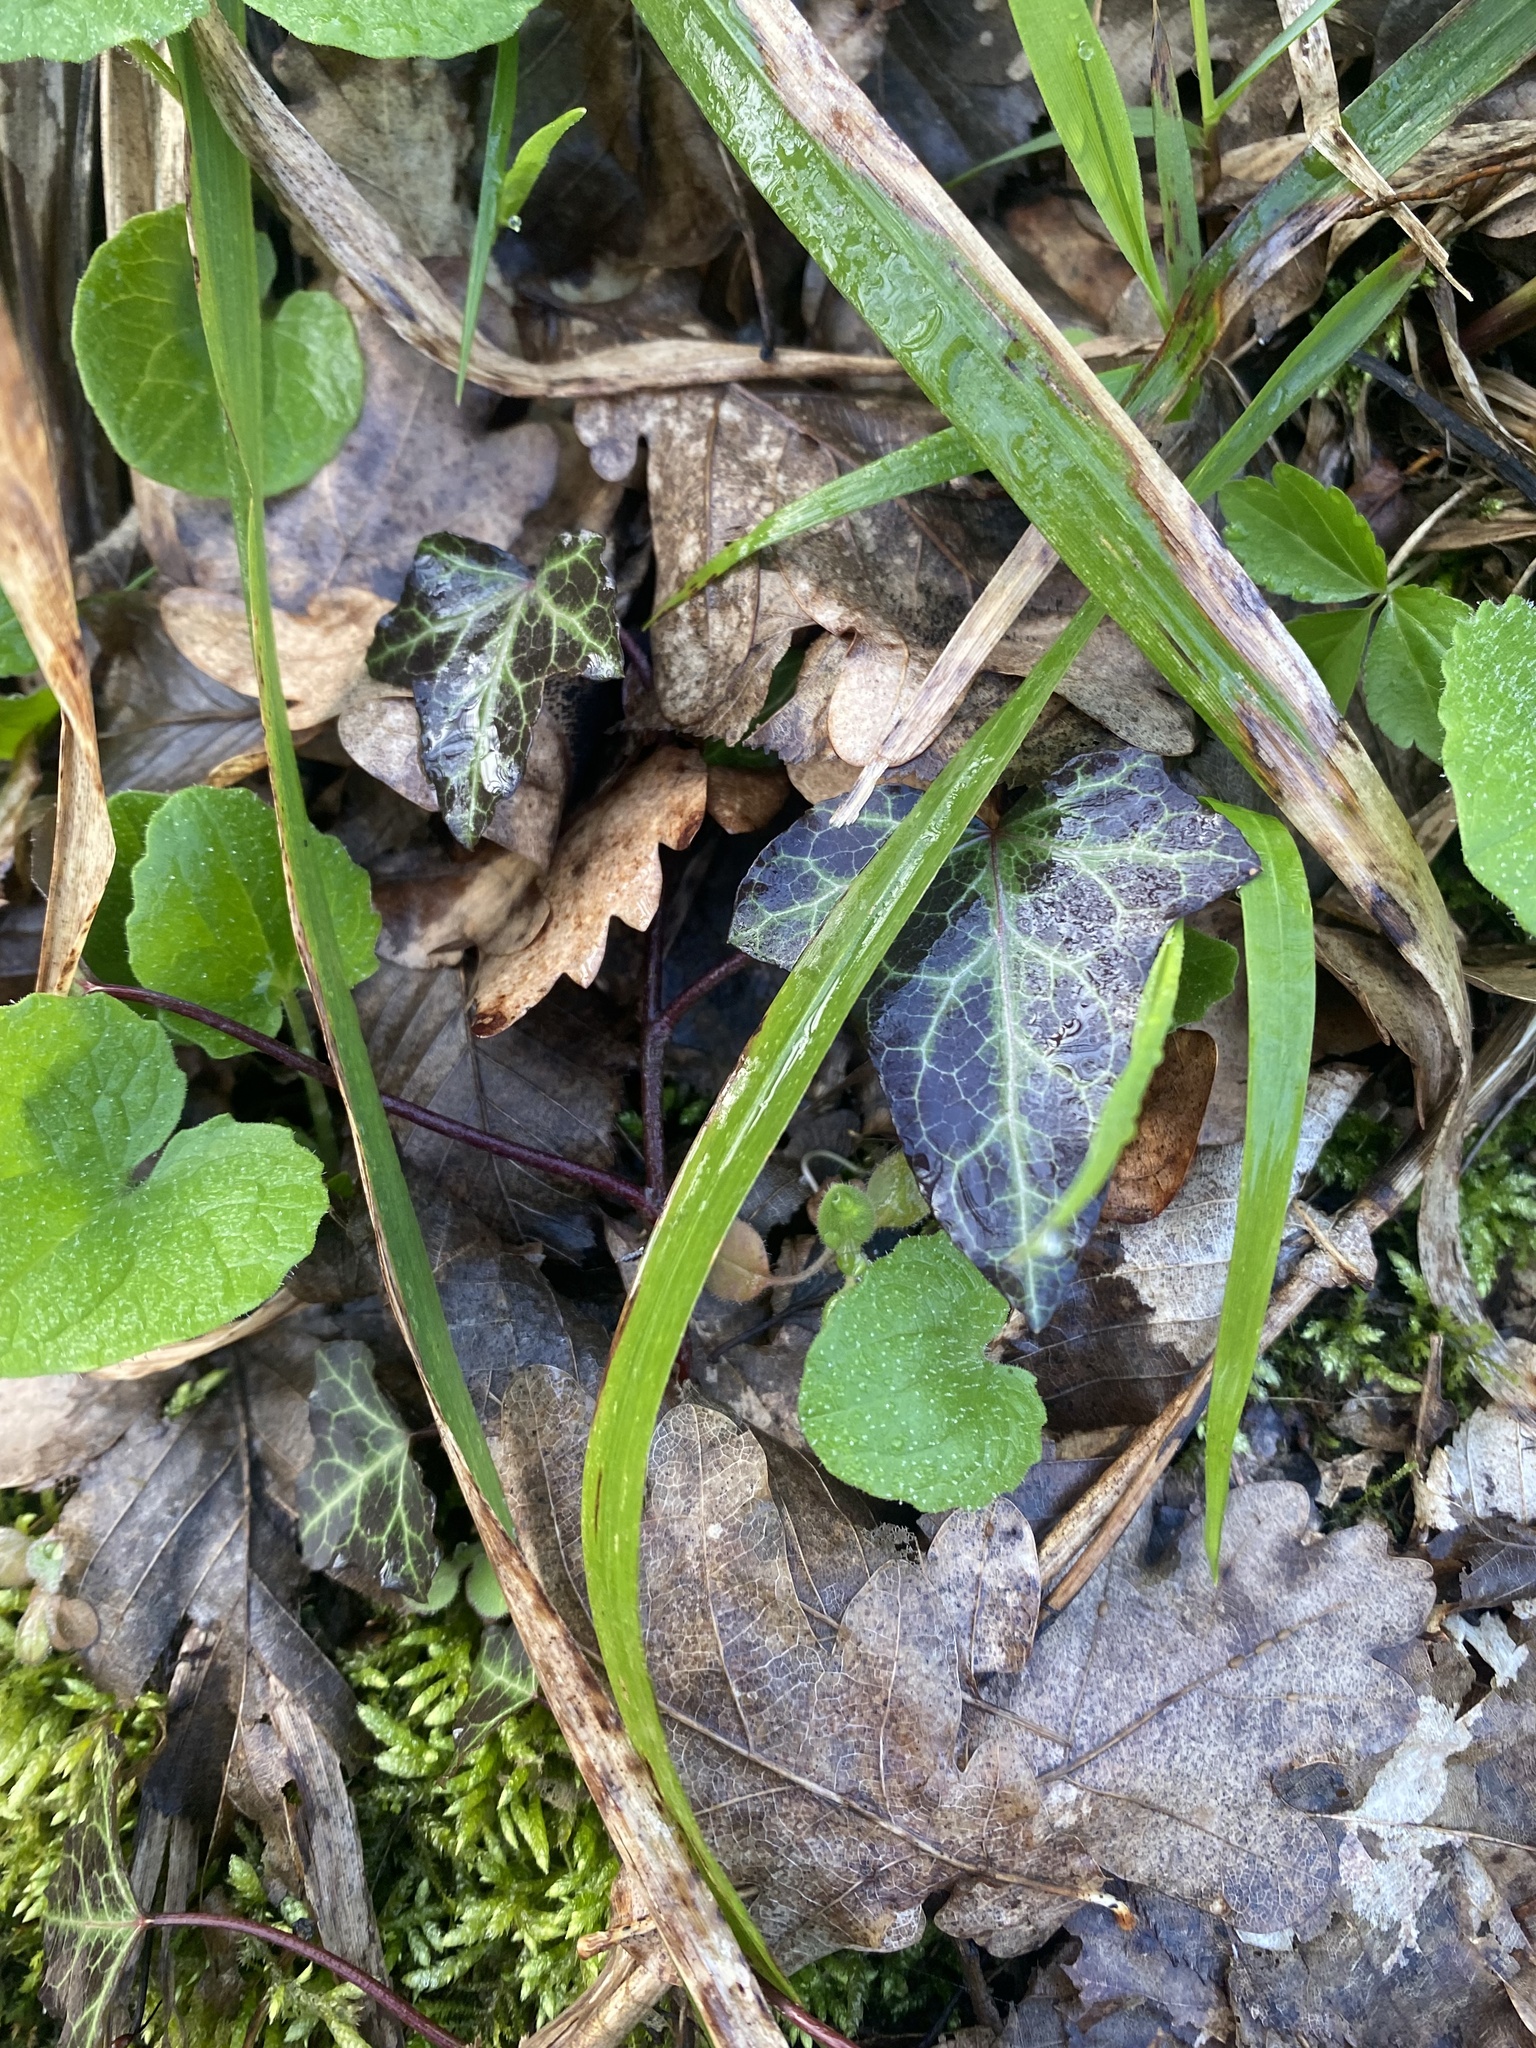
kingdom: Plantae
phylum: Tracheophyta
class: Magnoliopsida
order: Apiales
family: Araliaceae
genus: Hedera
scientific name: Hedera helix
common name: Ivy
